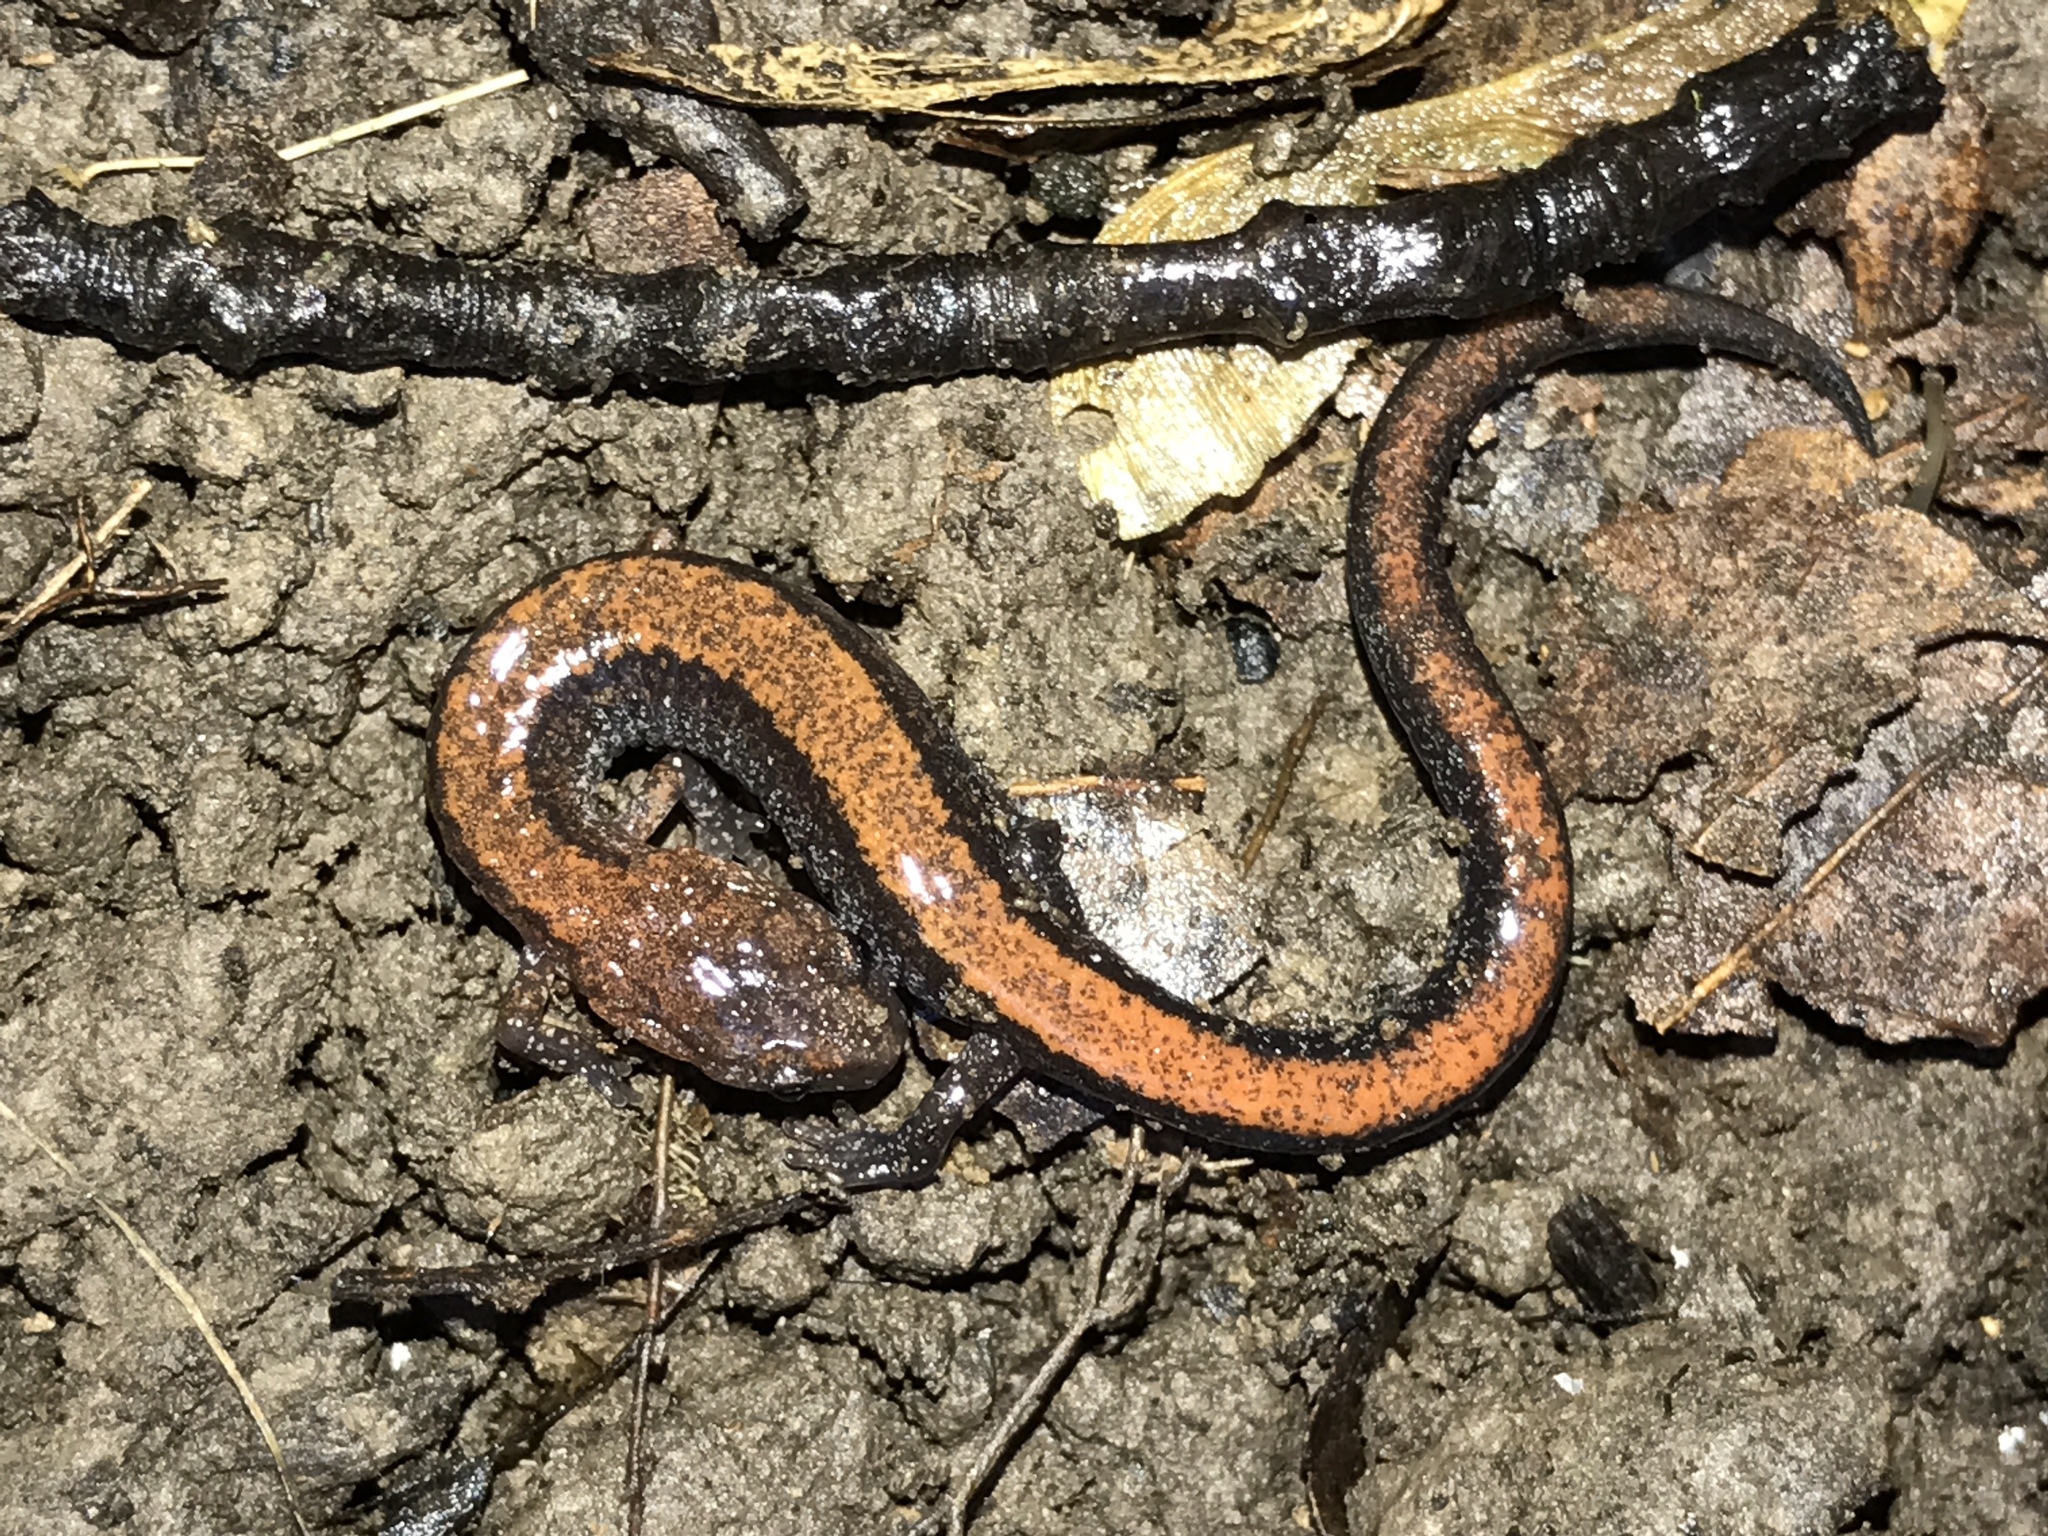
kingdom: Animalia
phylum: Chordata
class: Amphibia
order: Caudata
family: Plethodontidae
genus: Plethodon
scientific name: Plethodon cinereus
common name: Redback salamander
